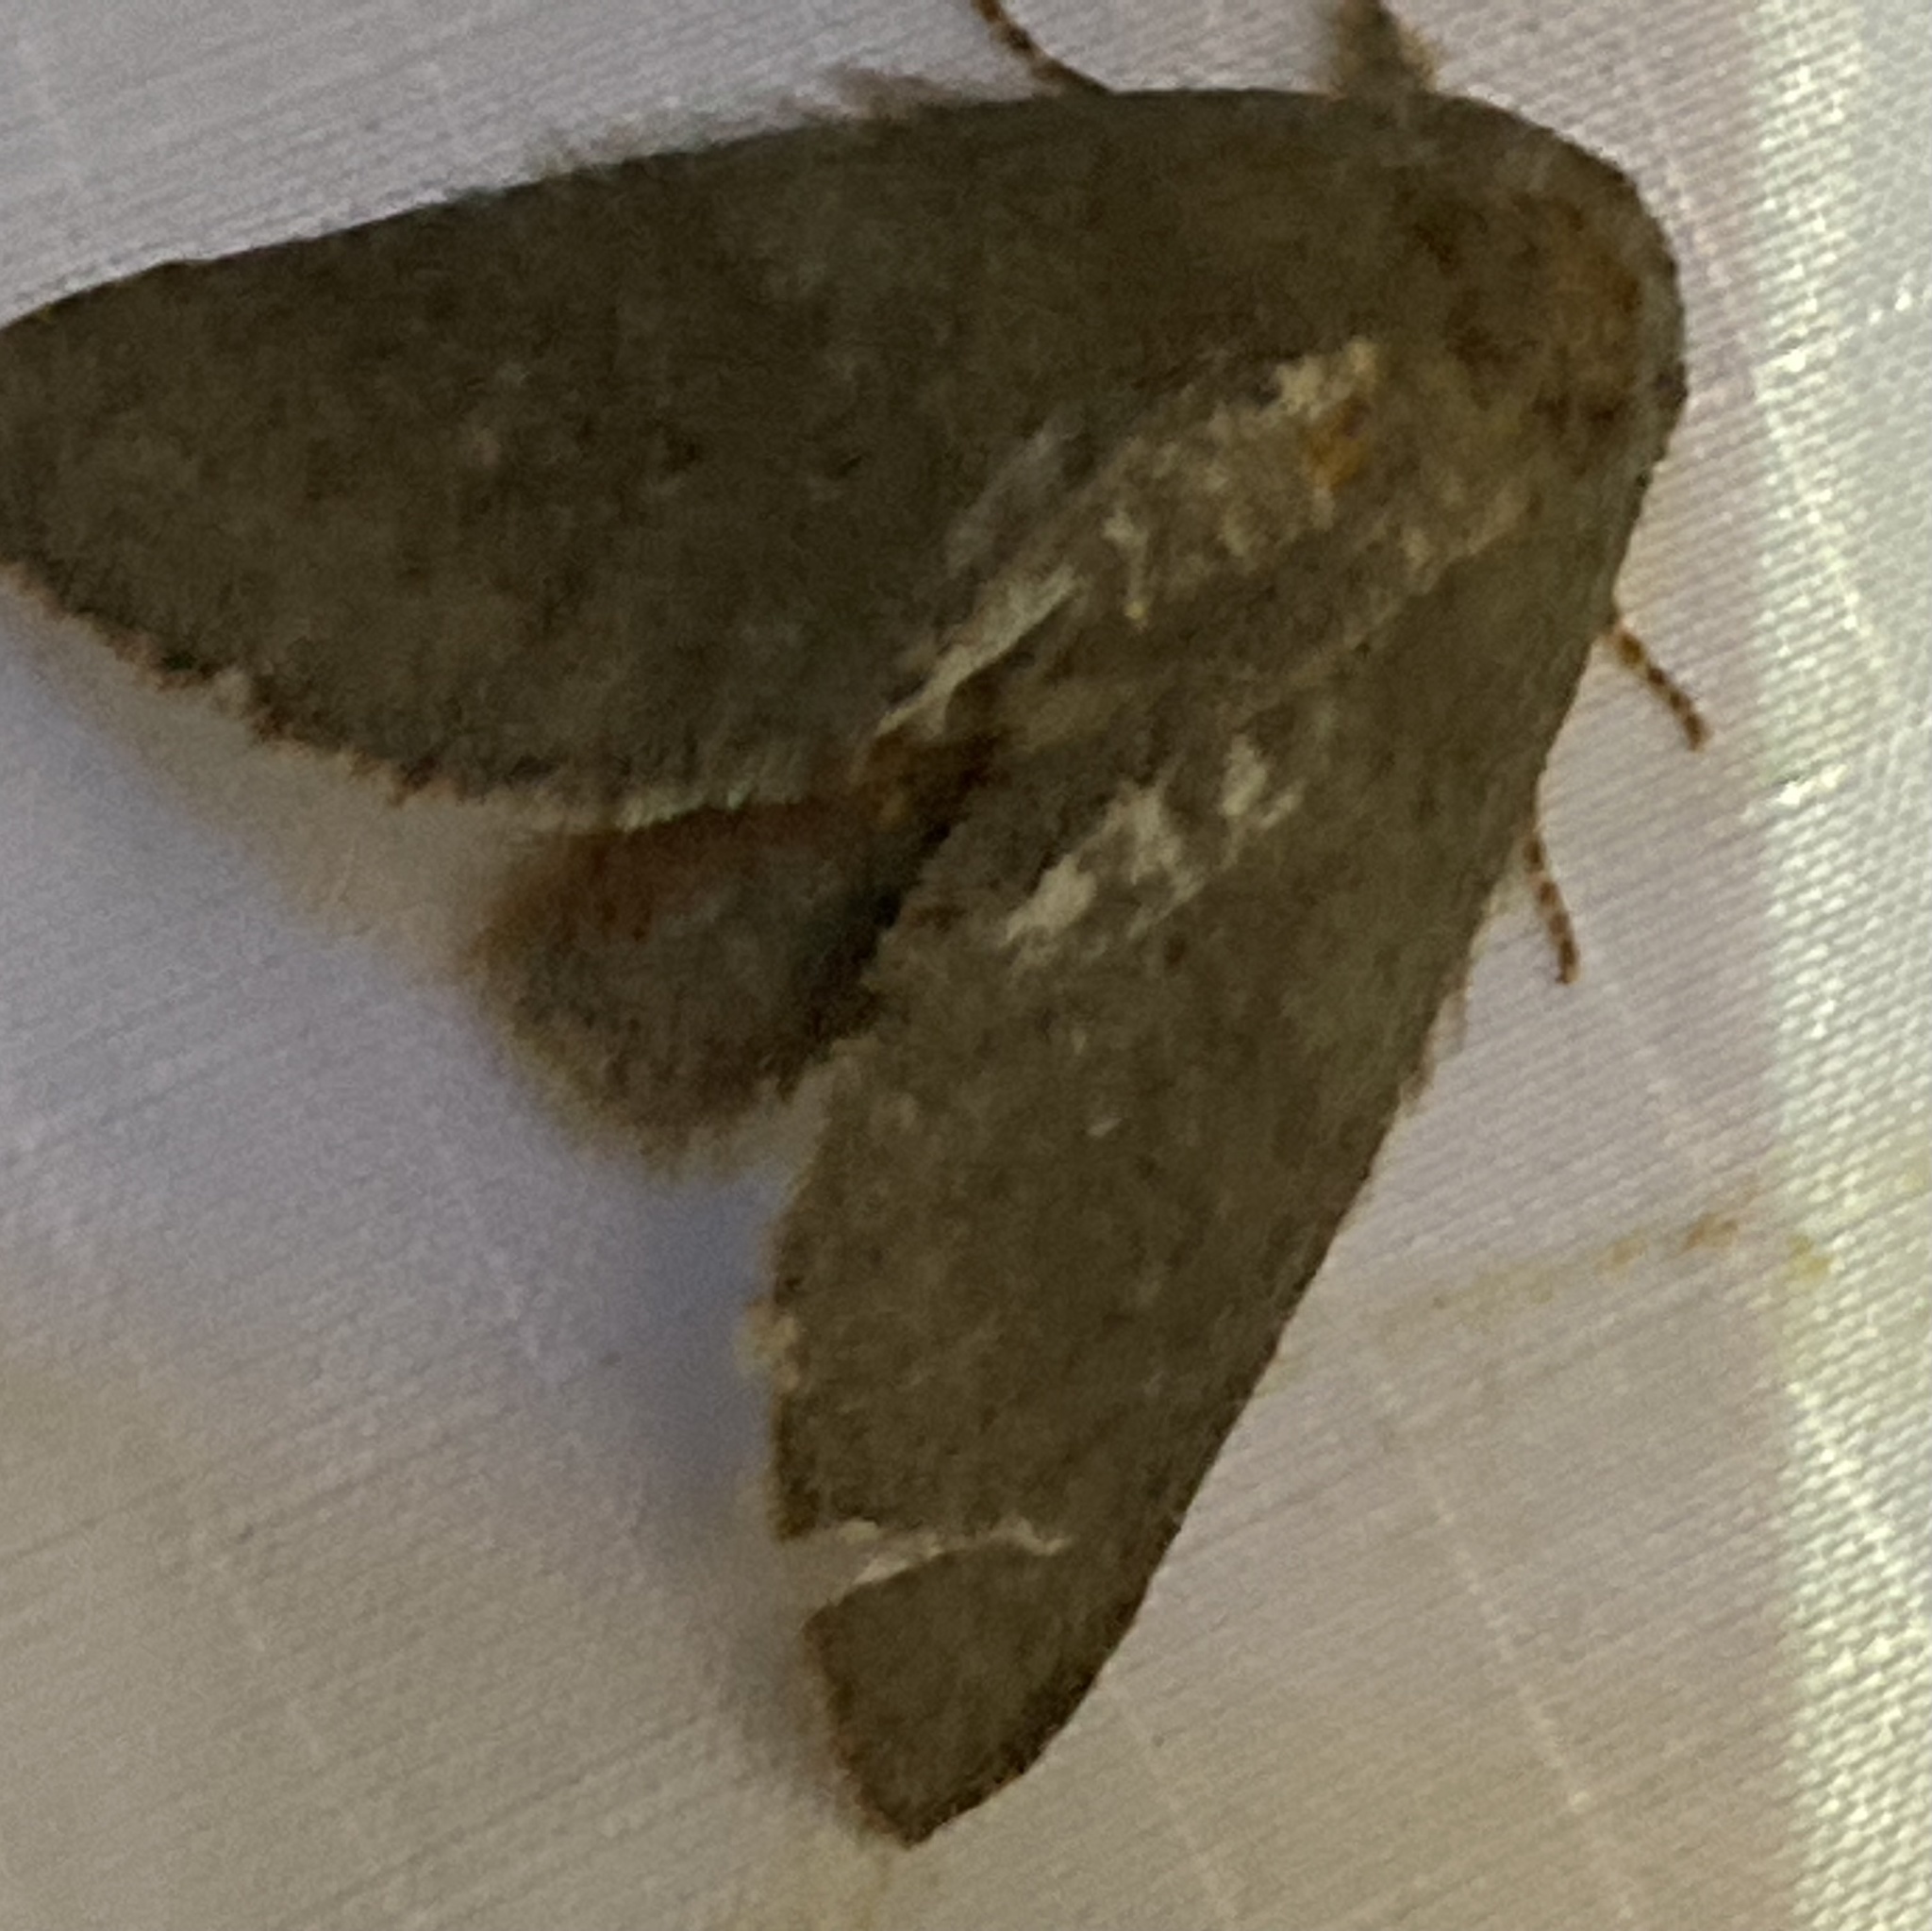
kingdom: Animalia
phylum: Arthropoda
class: Insecta
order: Lepidoptera
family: Notodontidae
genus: Misogada
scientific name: Misogada unicolor
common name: Drab prominent
